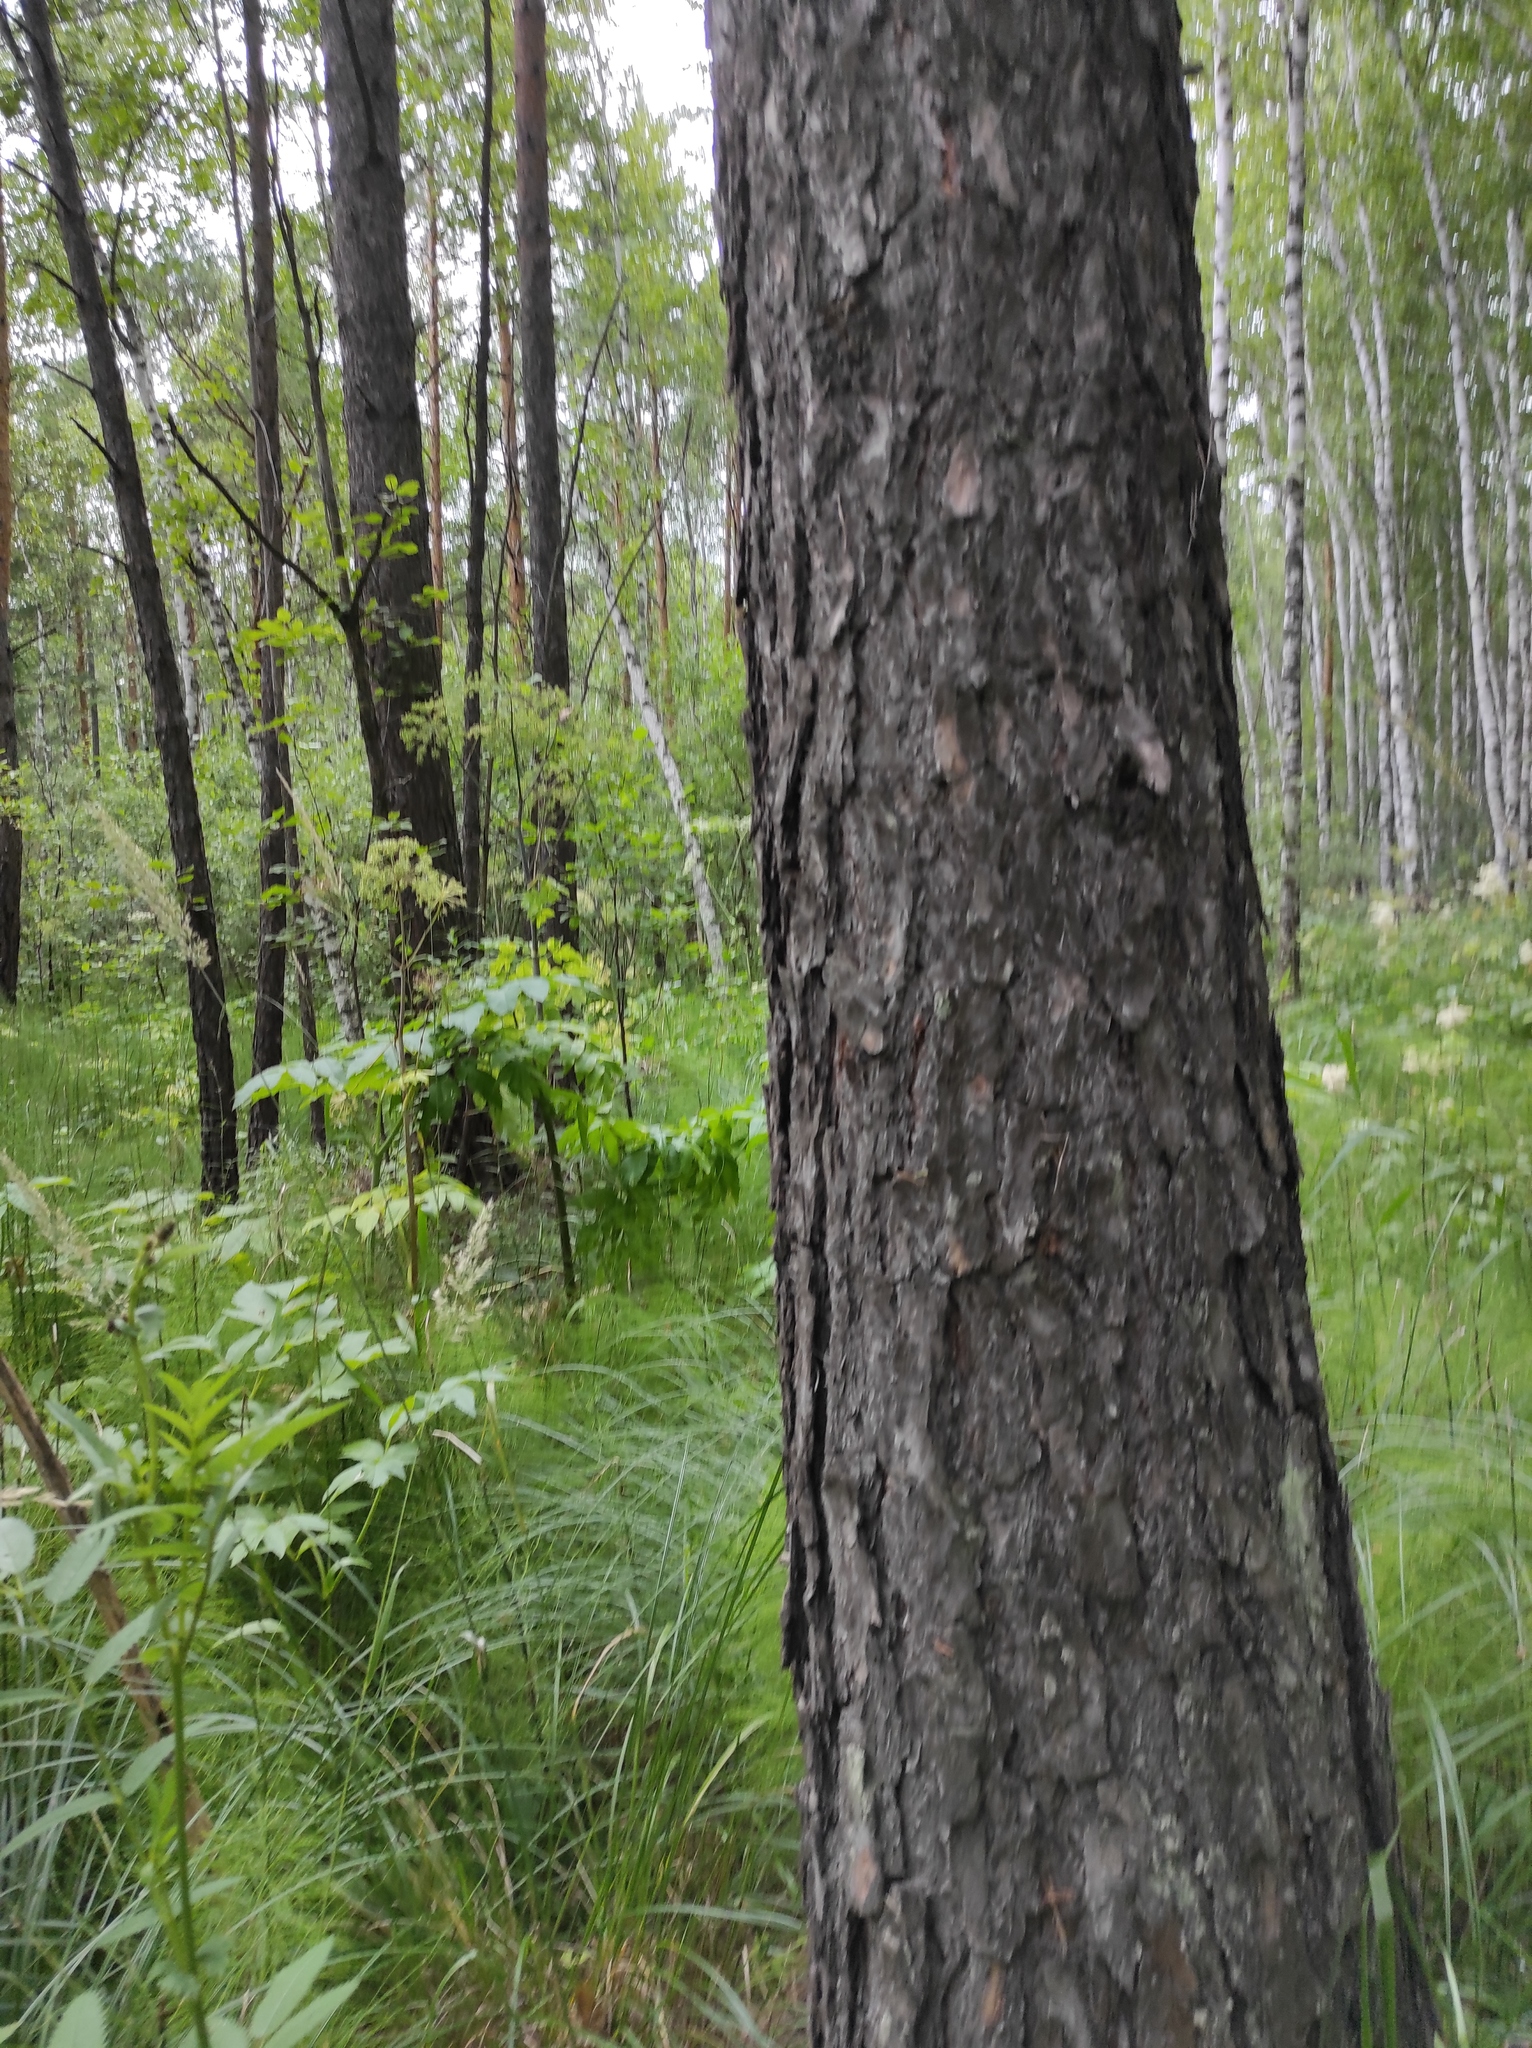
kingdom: Plantae
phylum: Tracheophyta
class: Pinopsida
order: Pinales
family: Pinaceae
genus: Pinus
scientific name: Pinus sylvestris
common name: Scots pine
